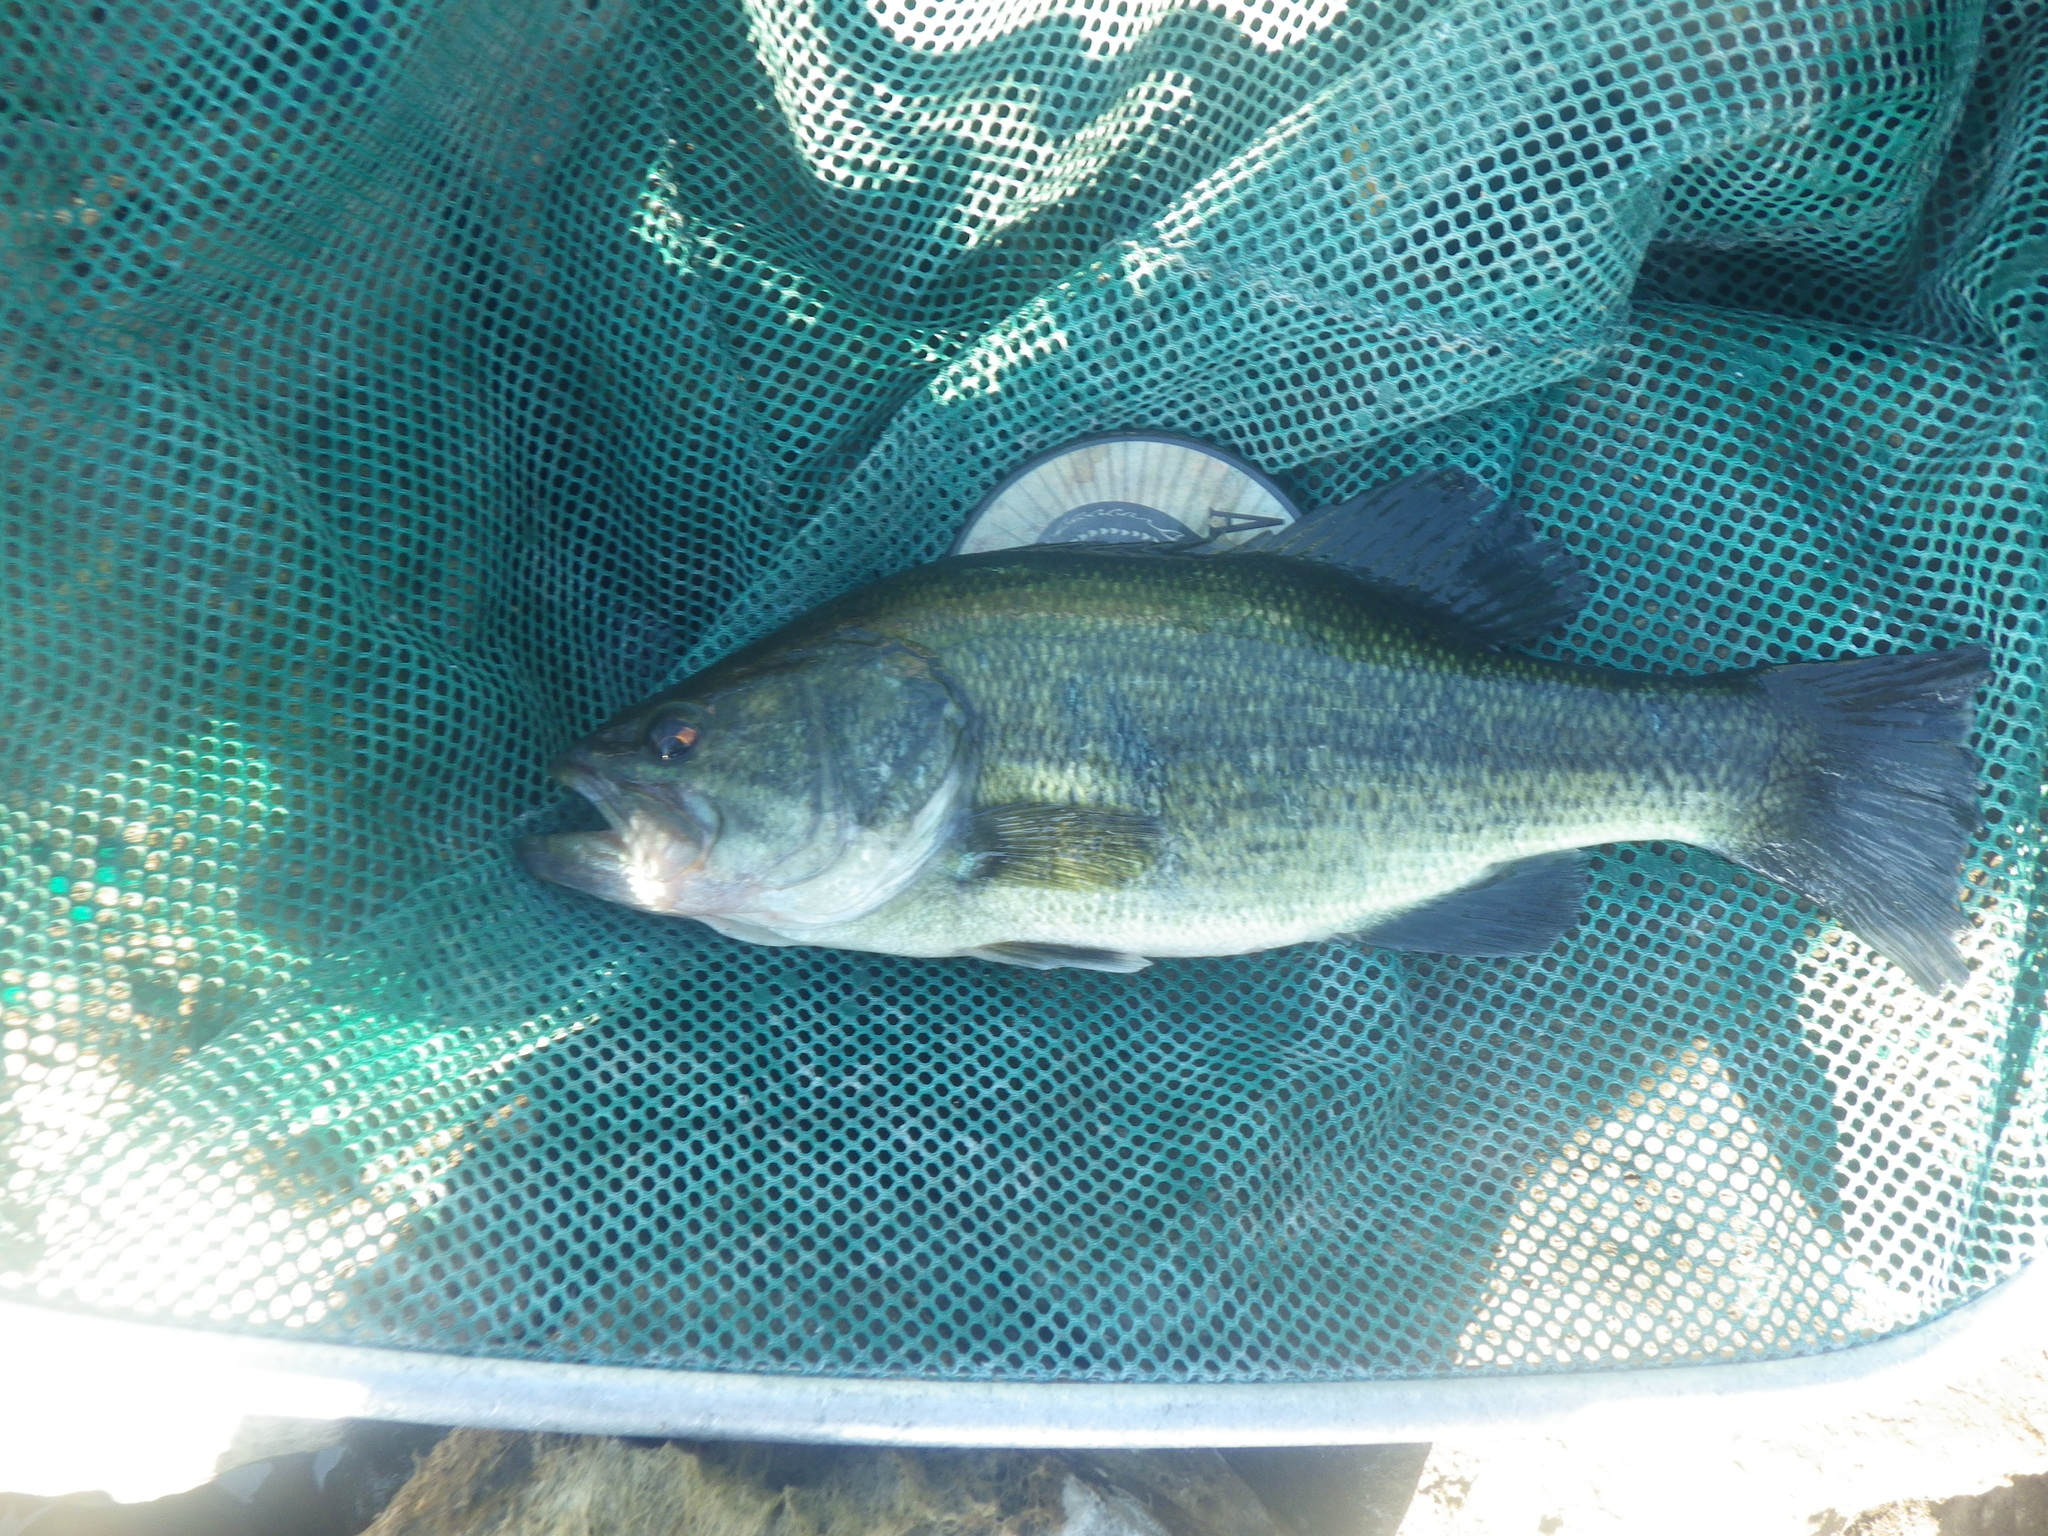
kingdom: Animalia
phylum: Chordata
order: Perciformes
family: Centrarchidae
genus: Micropterus
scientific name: Micropterus
